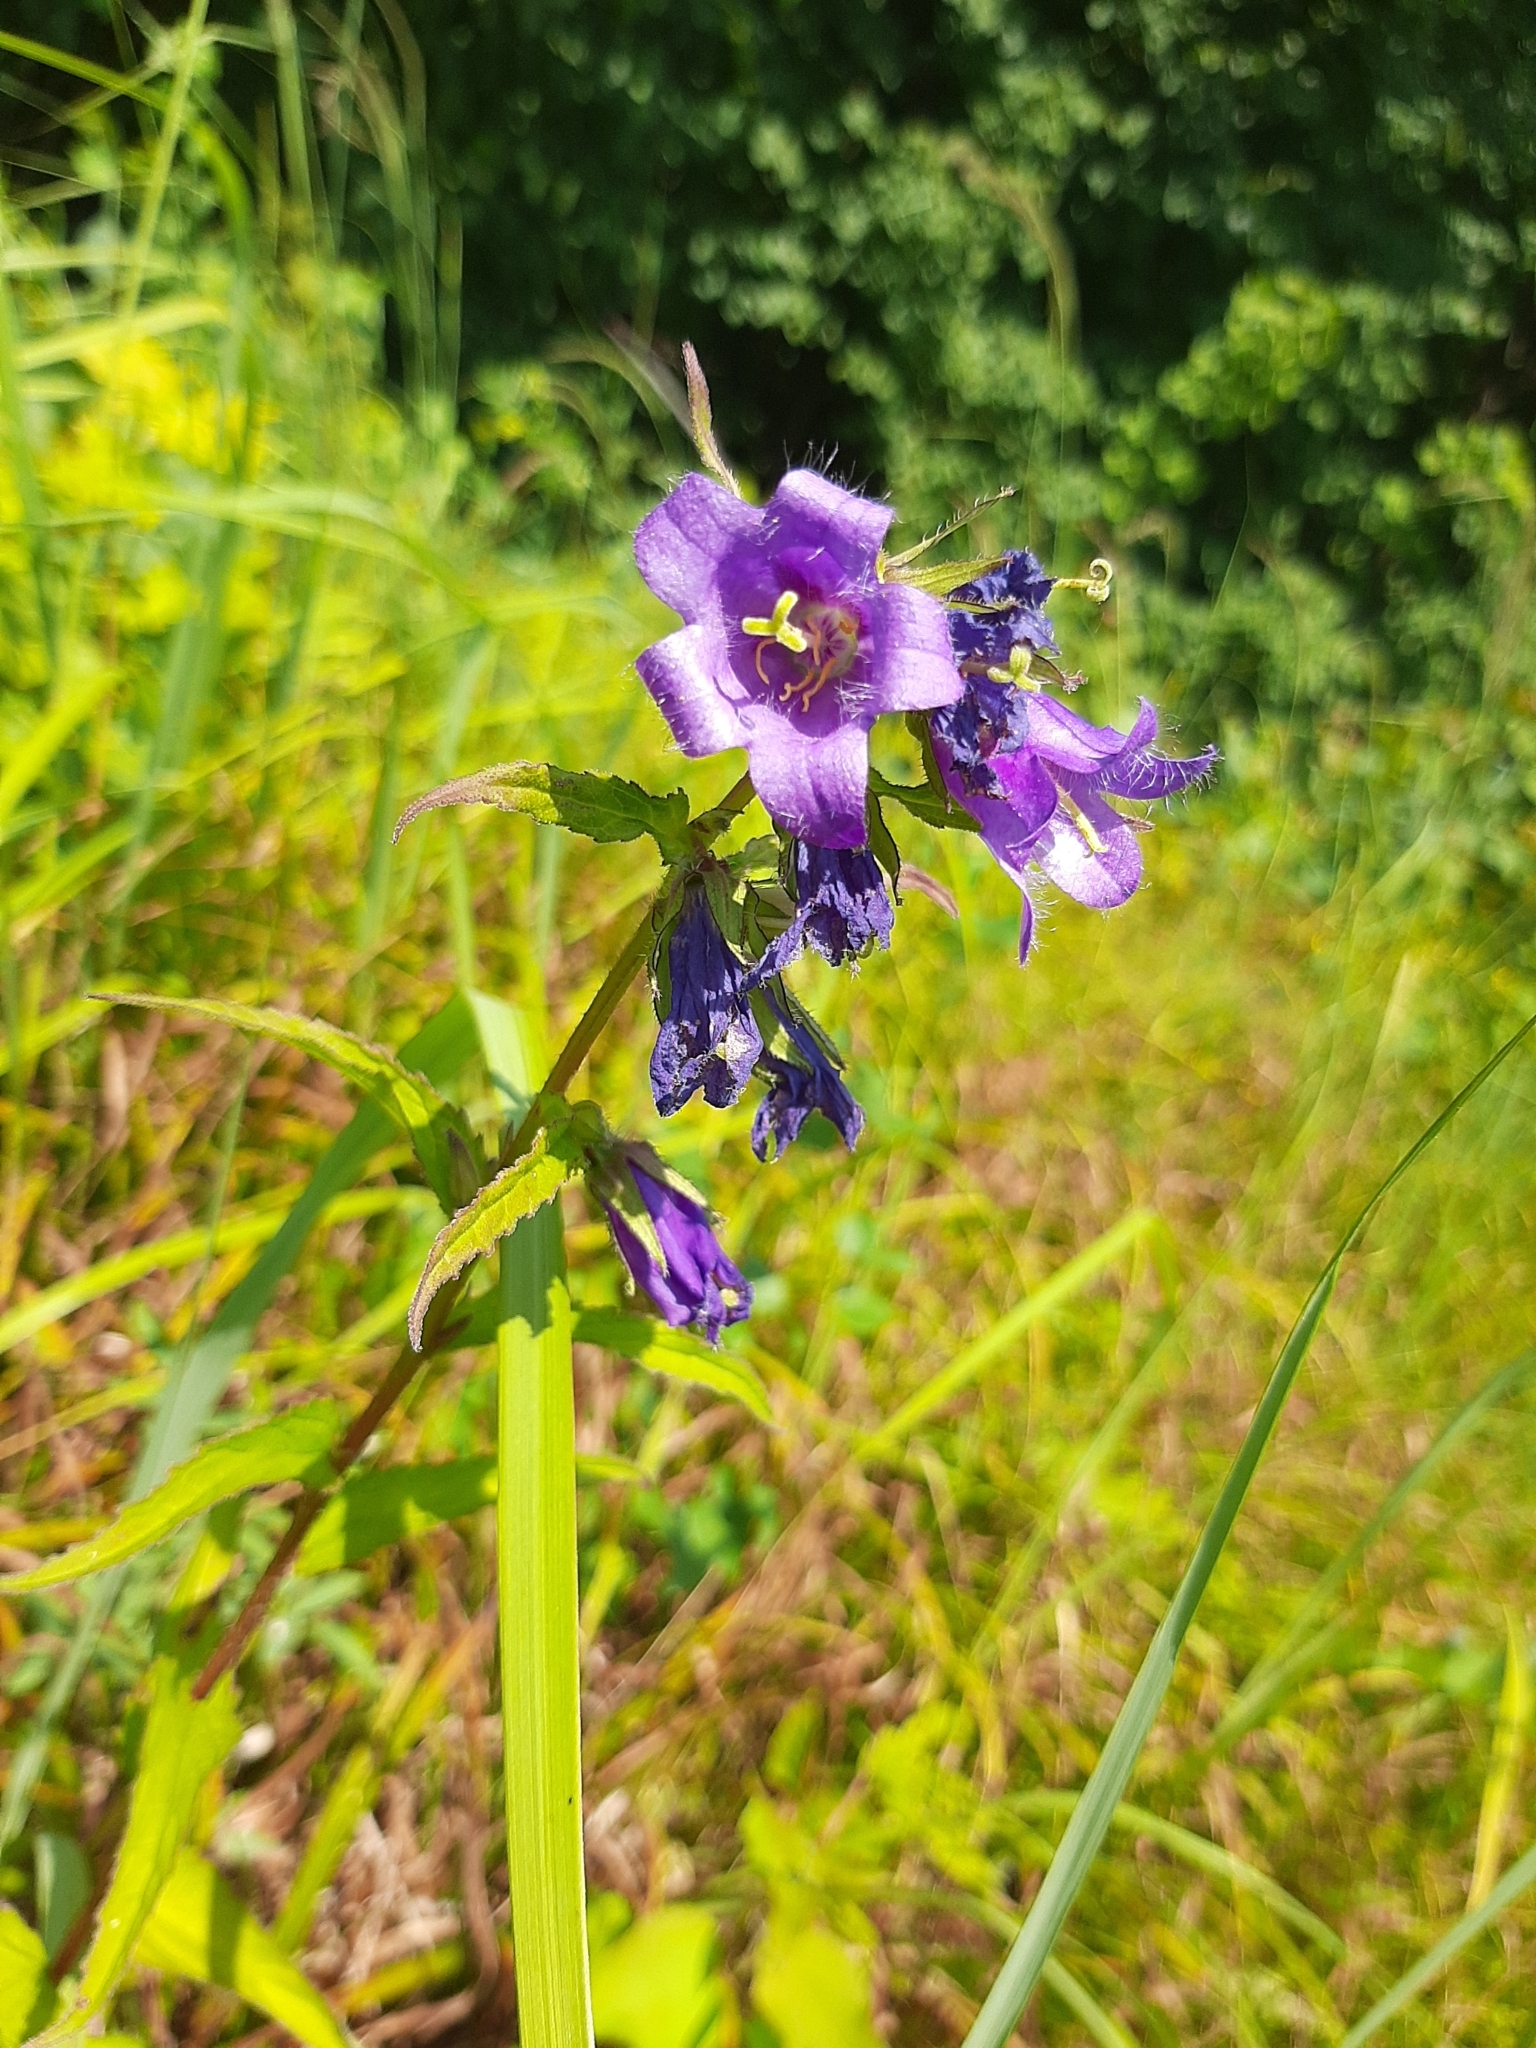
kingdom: Plantae
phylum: Tracheophyta
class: Magnoliopsida
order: Asterales
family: Campanulaceae
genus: Campanula
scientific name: Campanula trachelium
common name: Nettle-leaved bellflower
